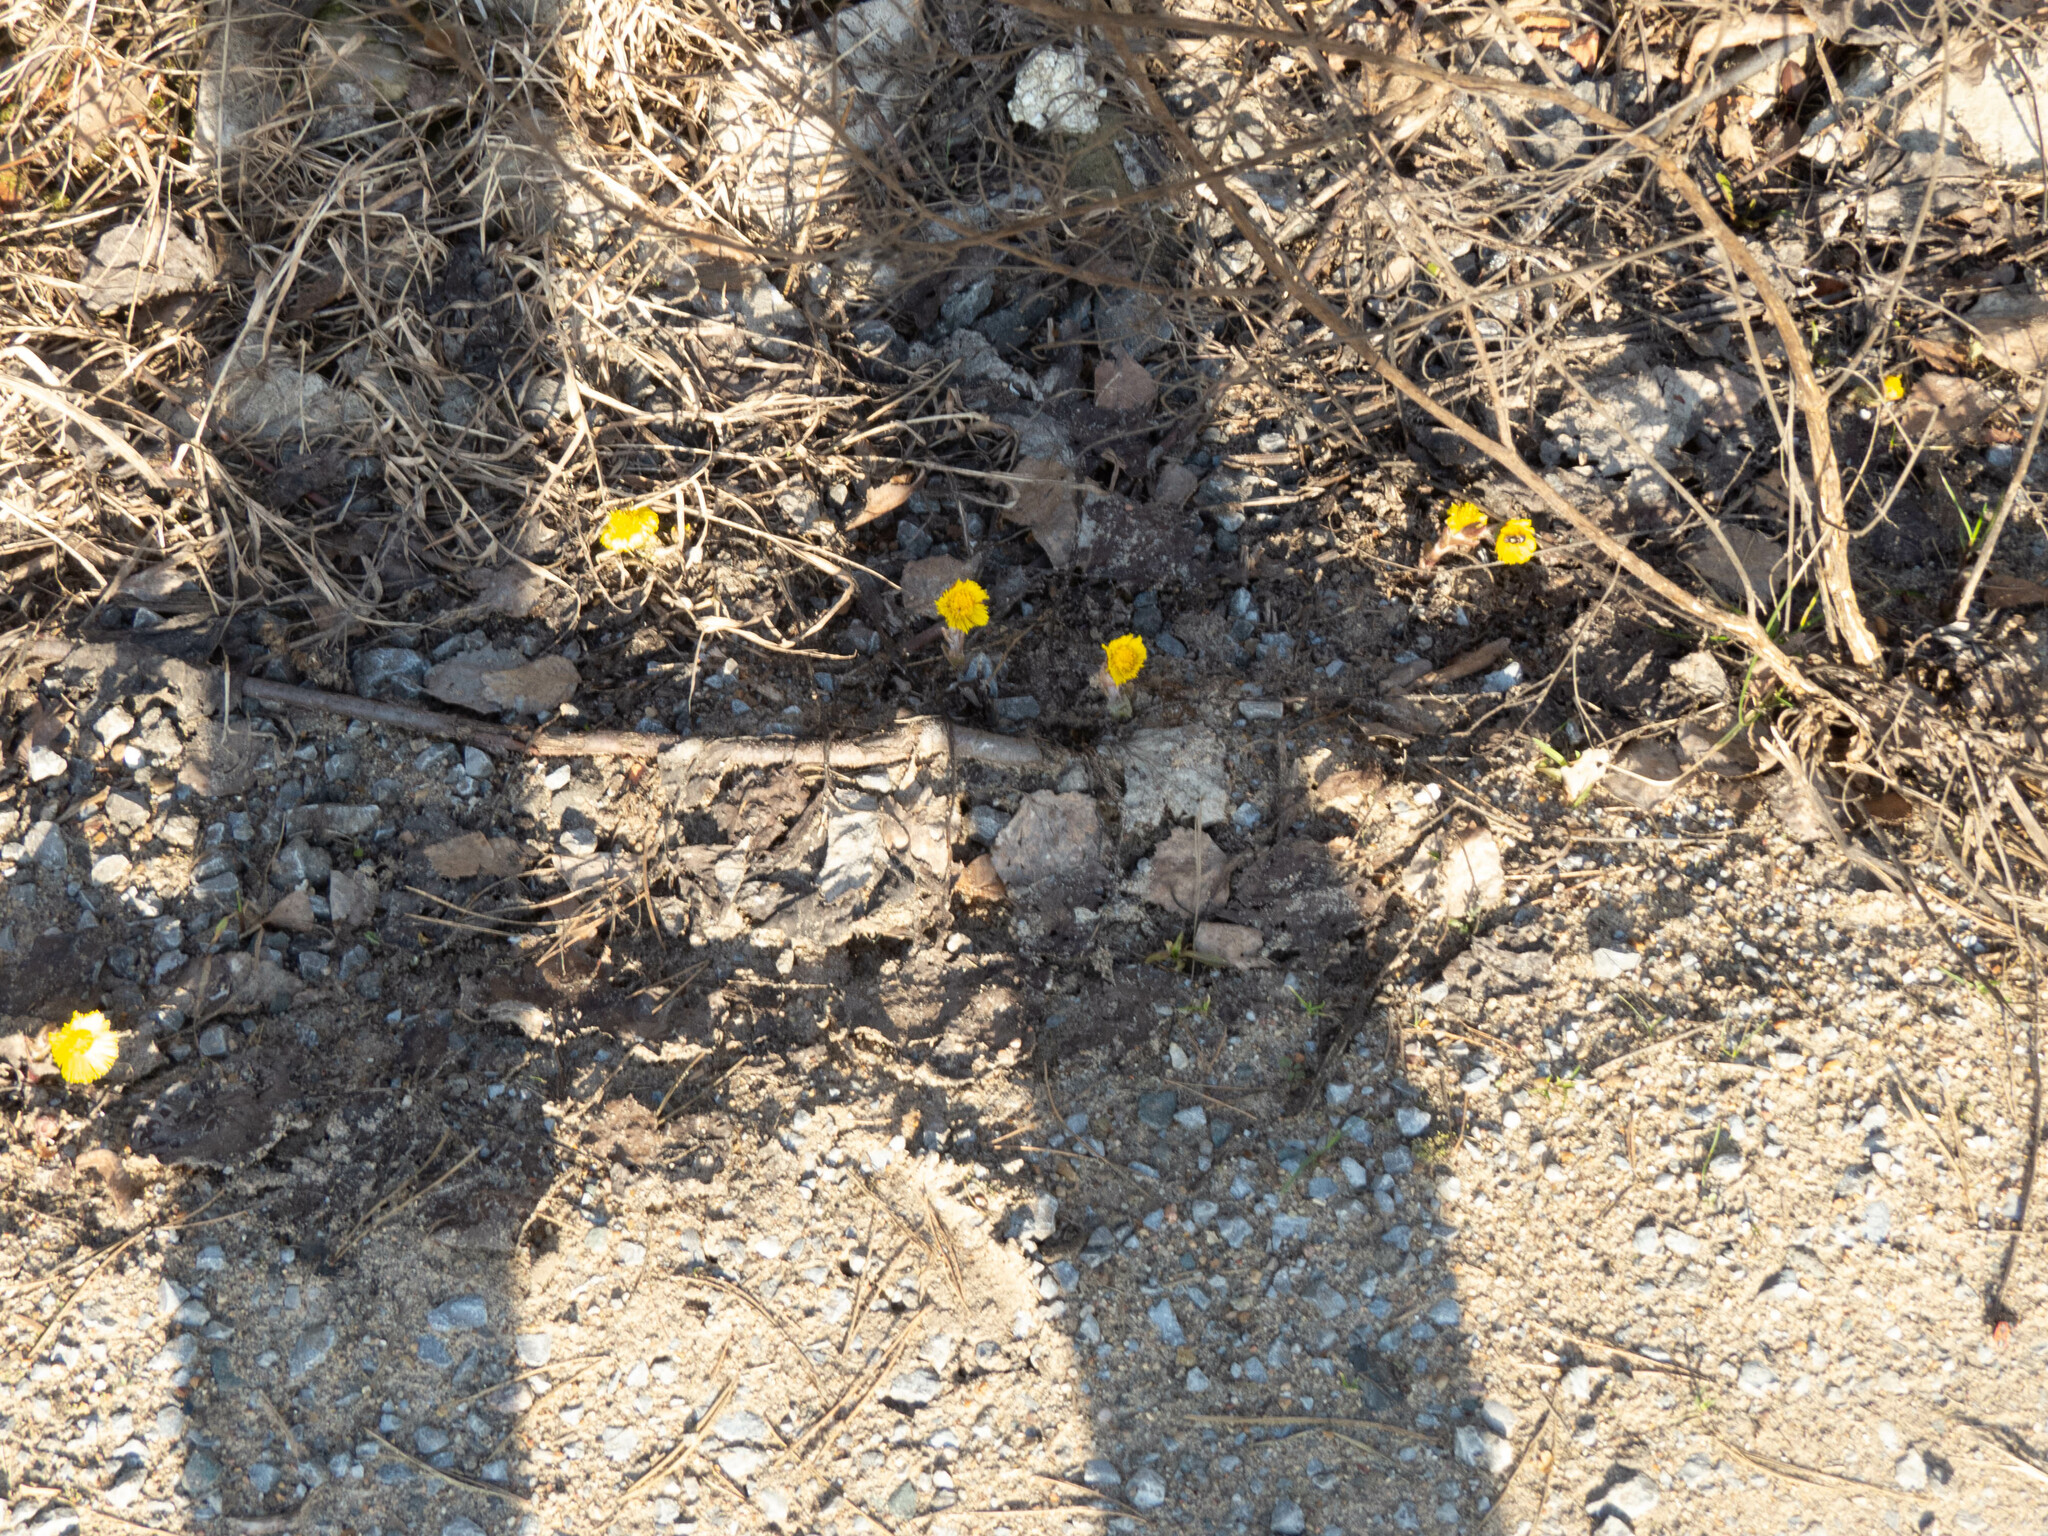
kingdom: Plantae
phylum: Tracheophyta
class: Magnoliopsida
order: Asterales
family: Asteraceae
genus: Tussilago
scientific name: Tussilago farfara
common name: Coltsfoot
